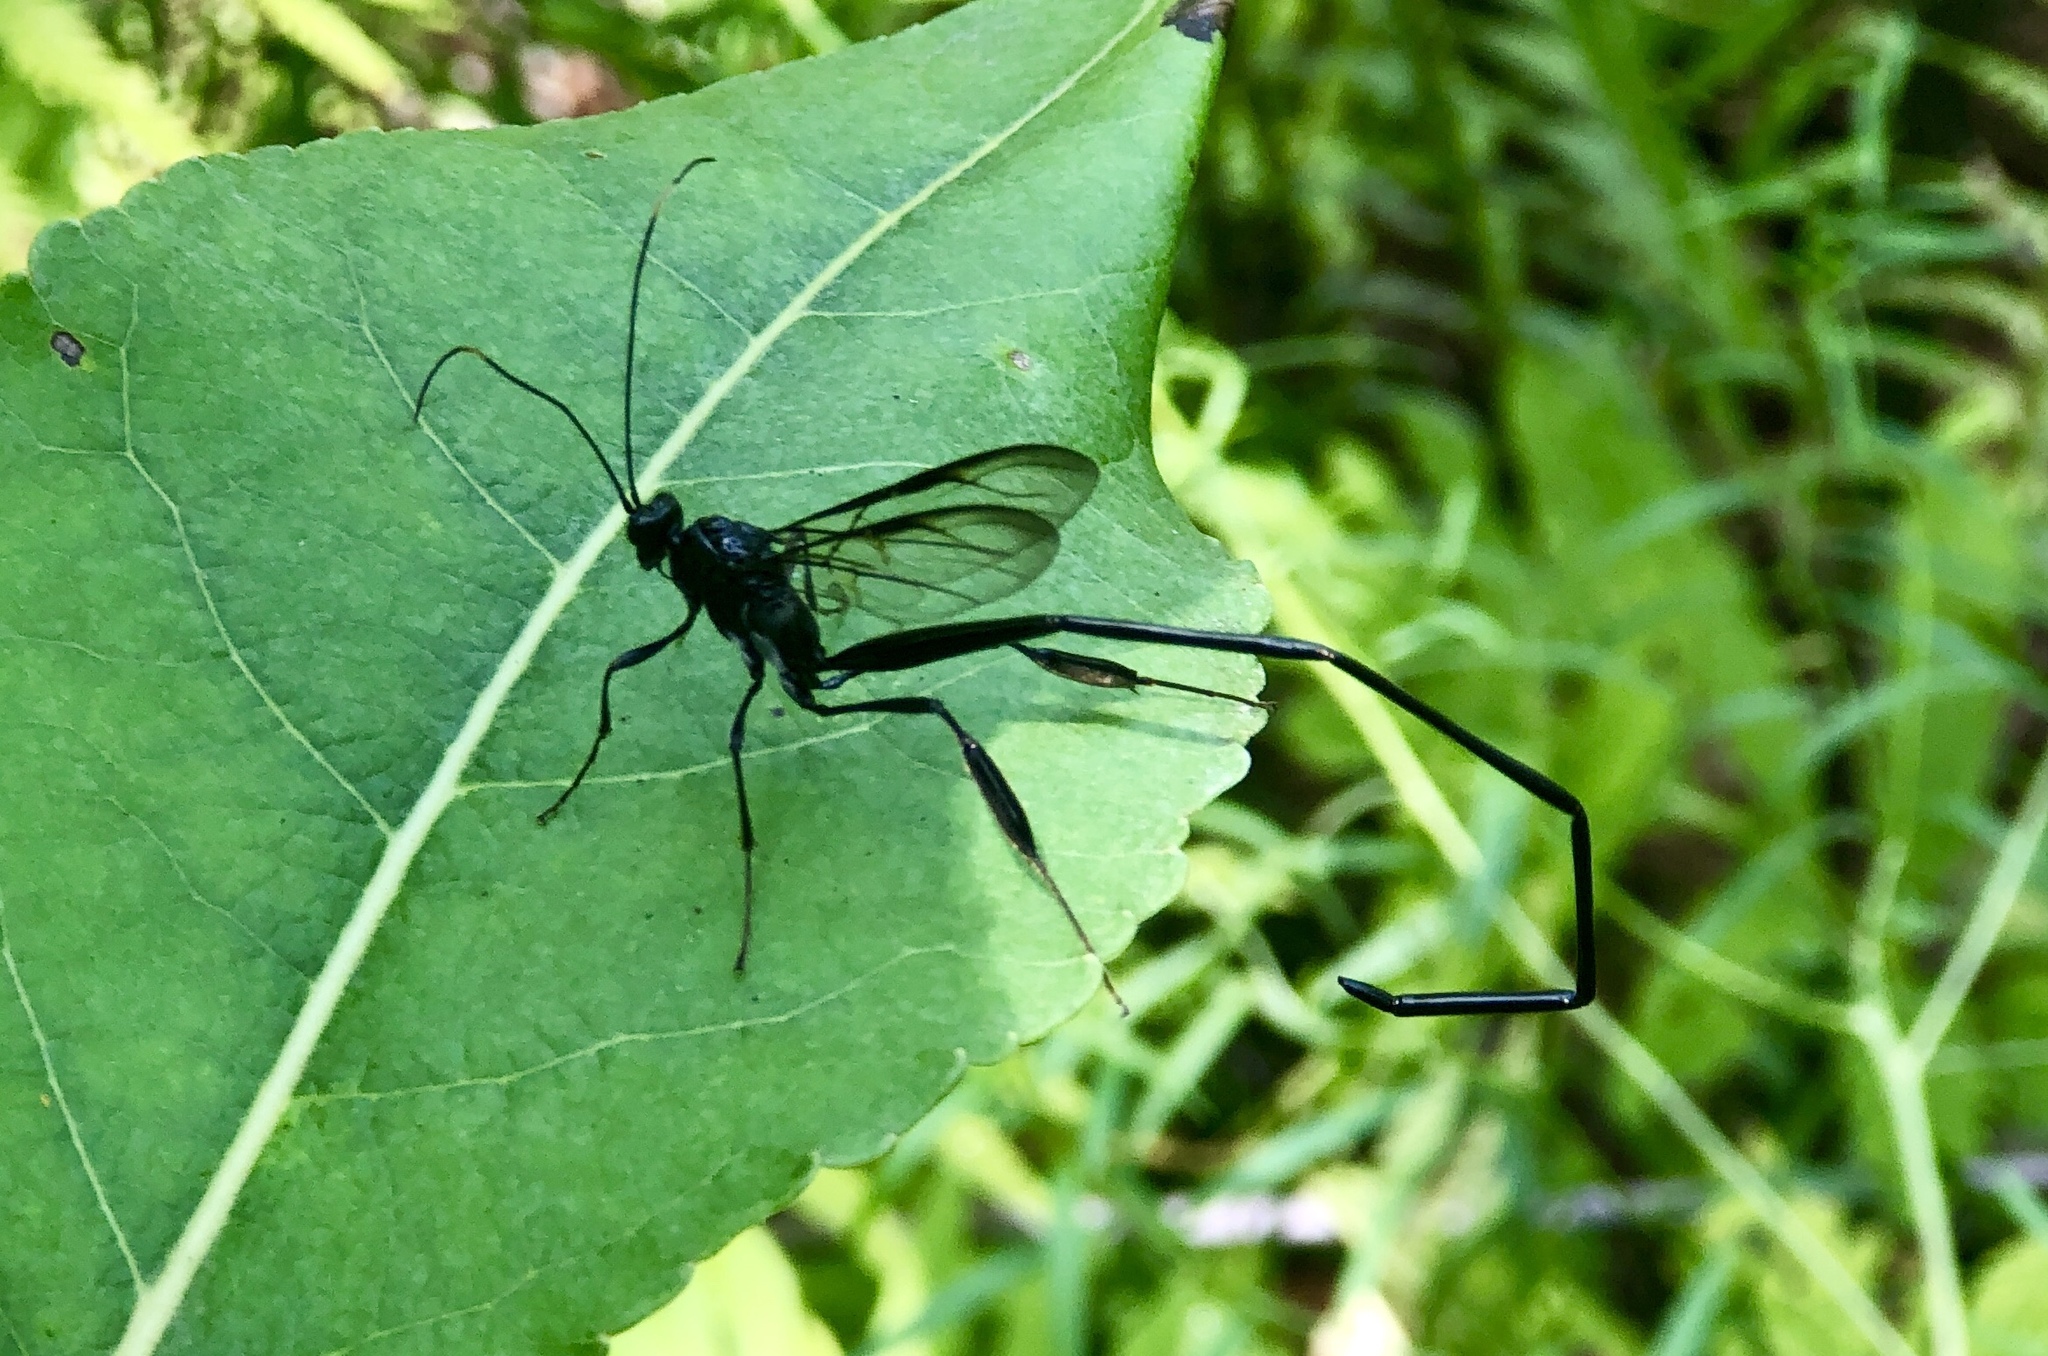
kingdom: Animalia
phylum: Arthropoda
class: Insecta
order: Hymenoptera
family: Pelecinidae
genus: Pelecinus
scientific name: Pelecinus polyturator
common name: American pelecinid wasp
